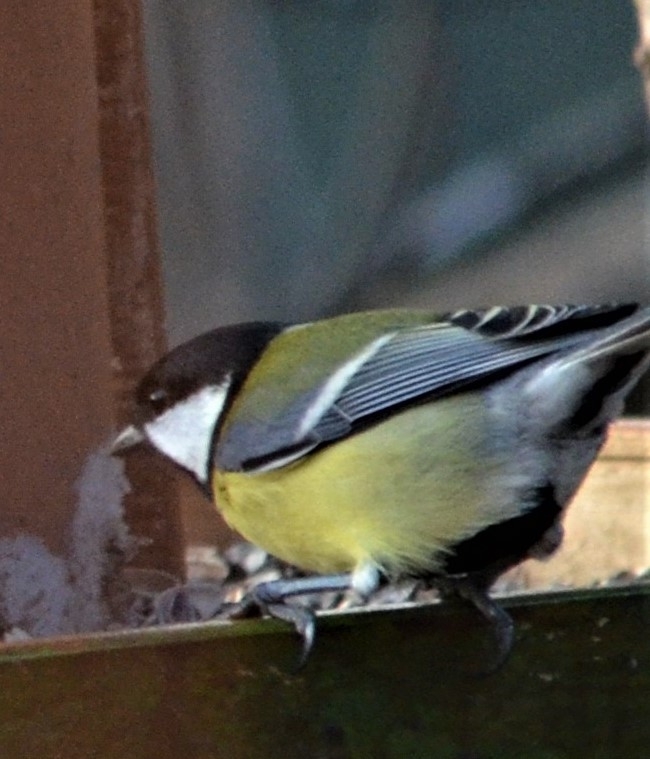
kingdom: Animalia
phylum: Chordata
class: Aves
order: Passeriformes
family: Paridae
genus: Parus
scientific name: Parus major
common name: Great tit
